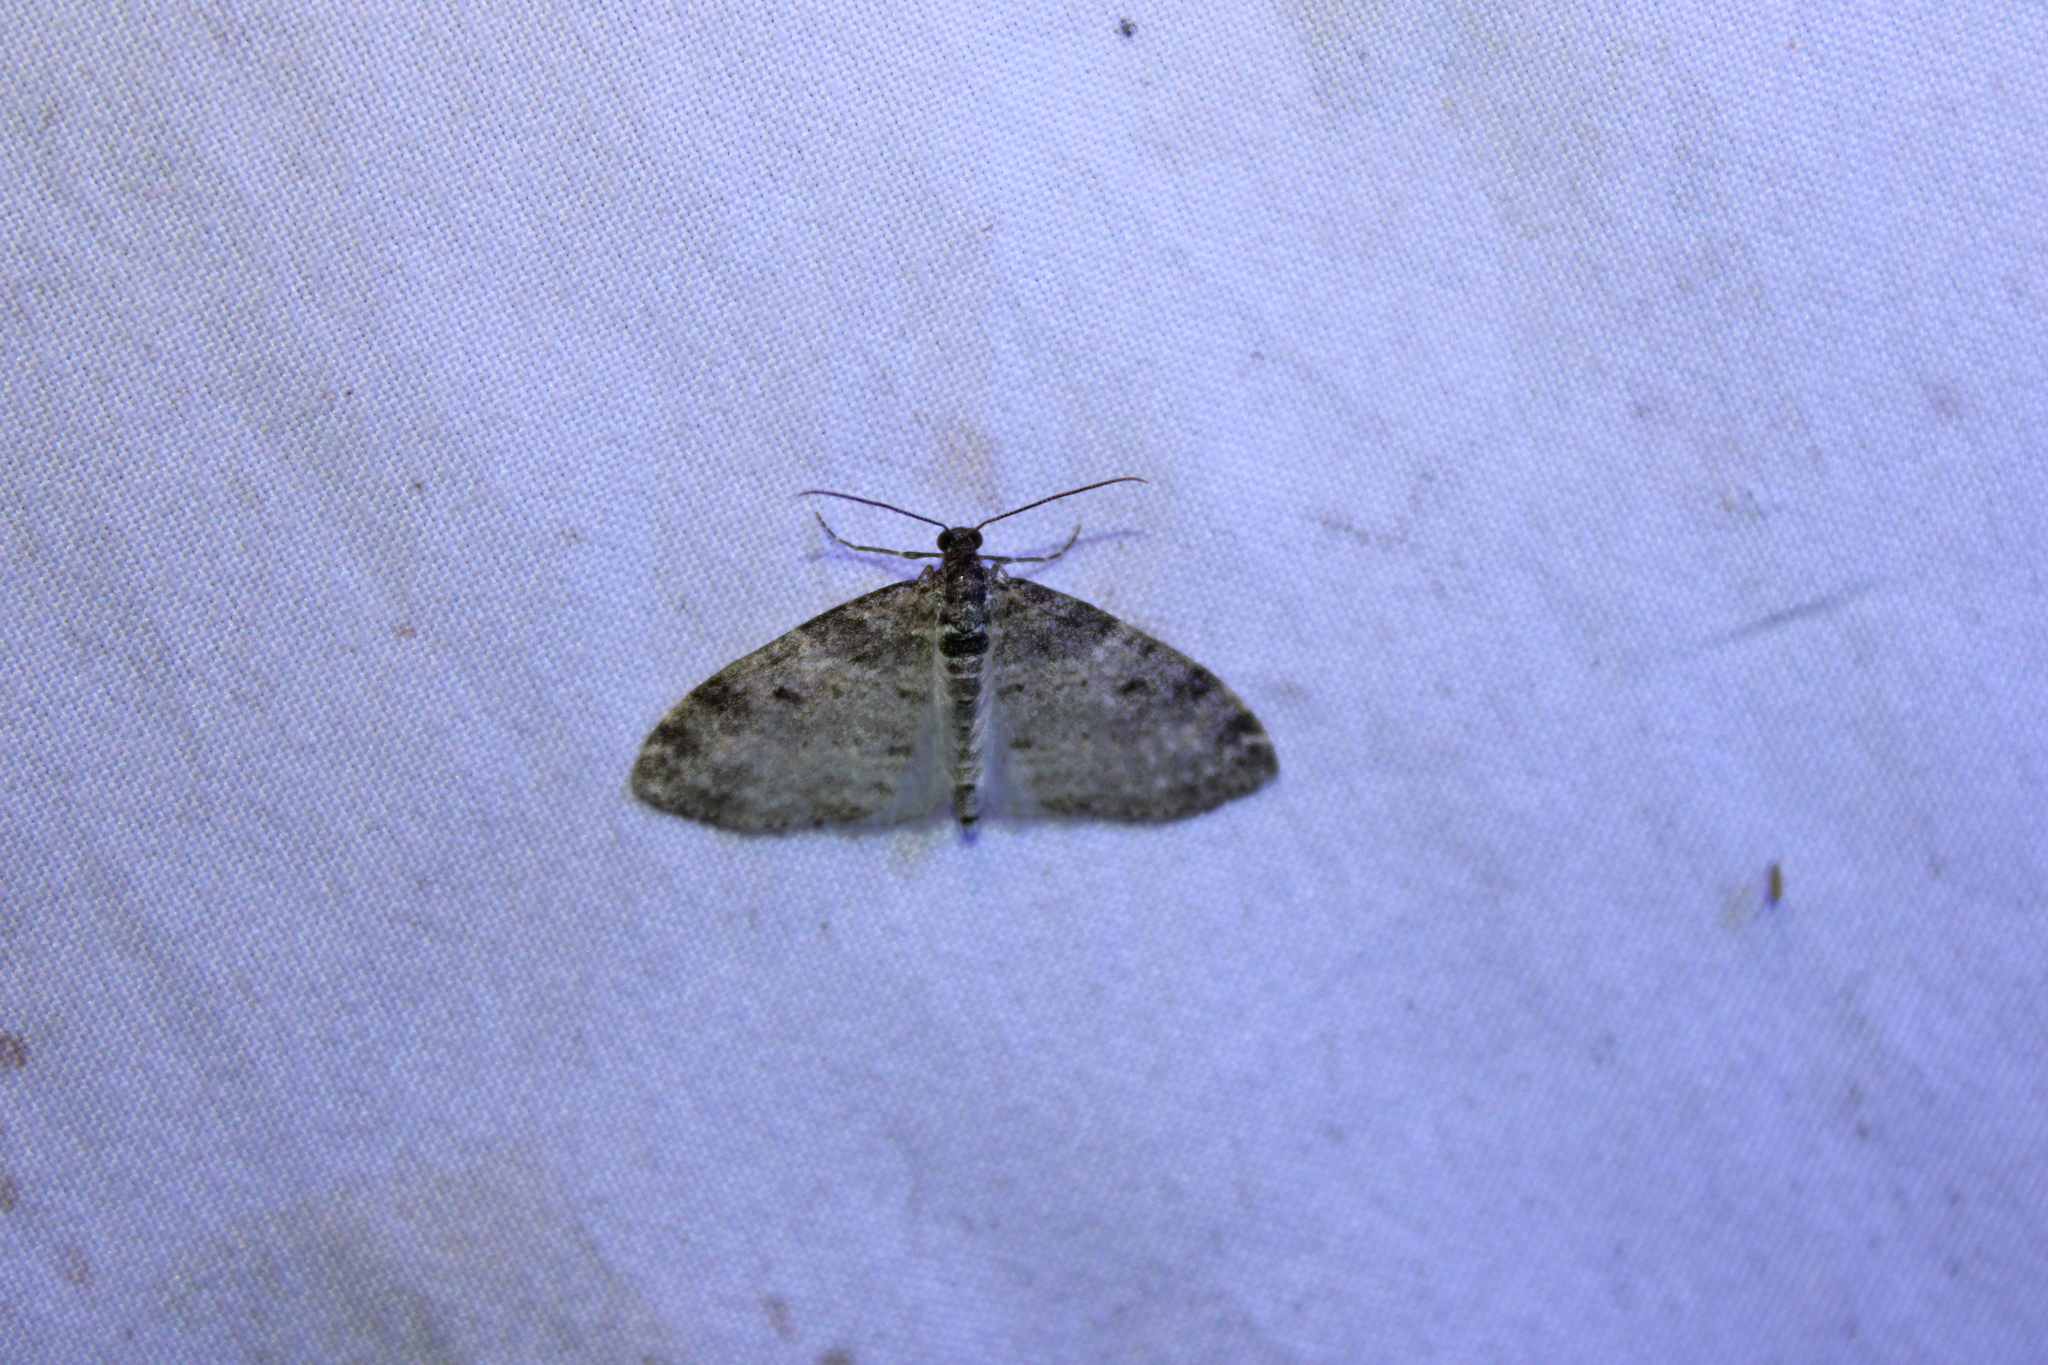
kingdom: Animalia
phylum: Arthropoda
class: Insecta
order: Lepidoptera
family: Geometridae
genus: Lobophora
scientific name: Lobophora nivigerata
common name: Powdered bigwing
